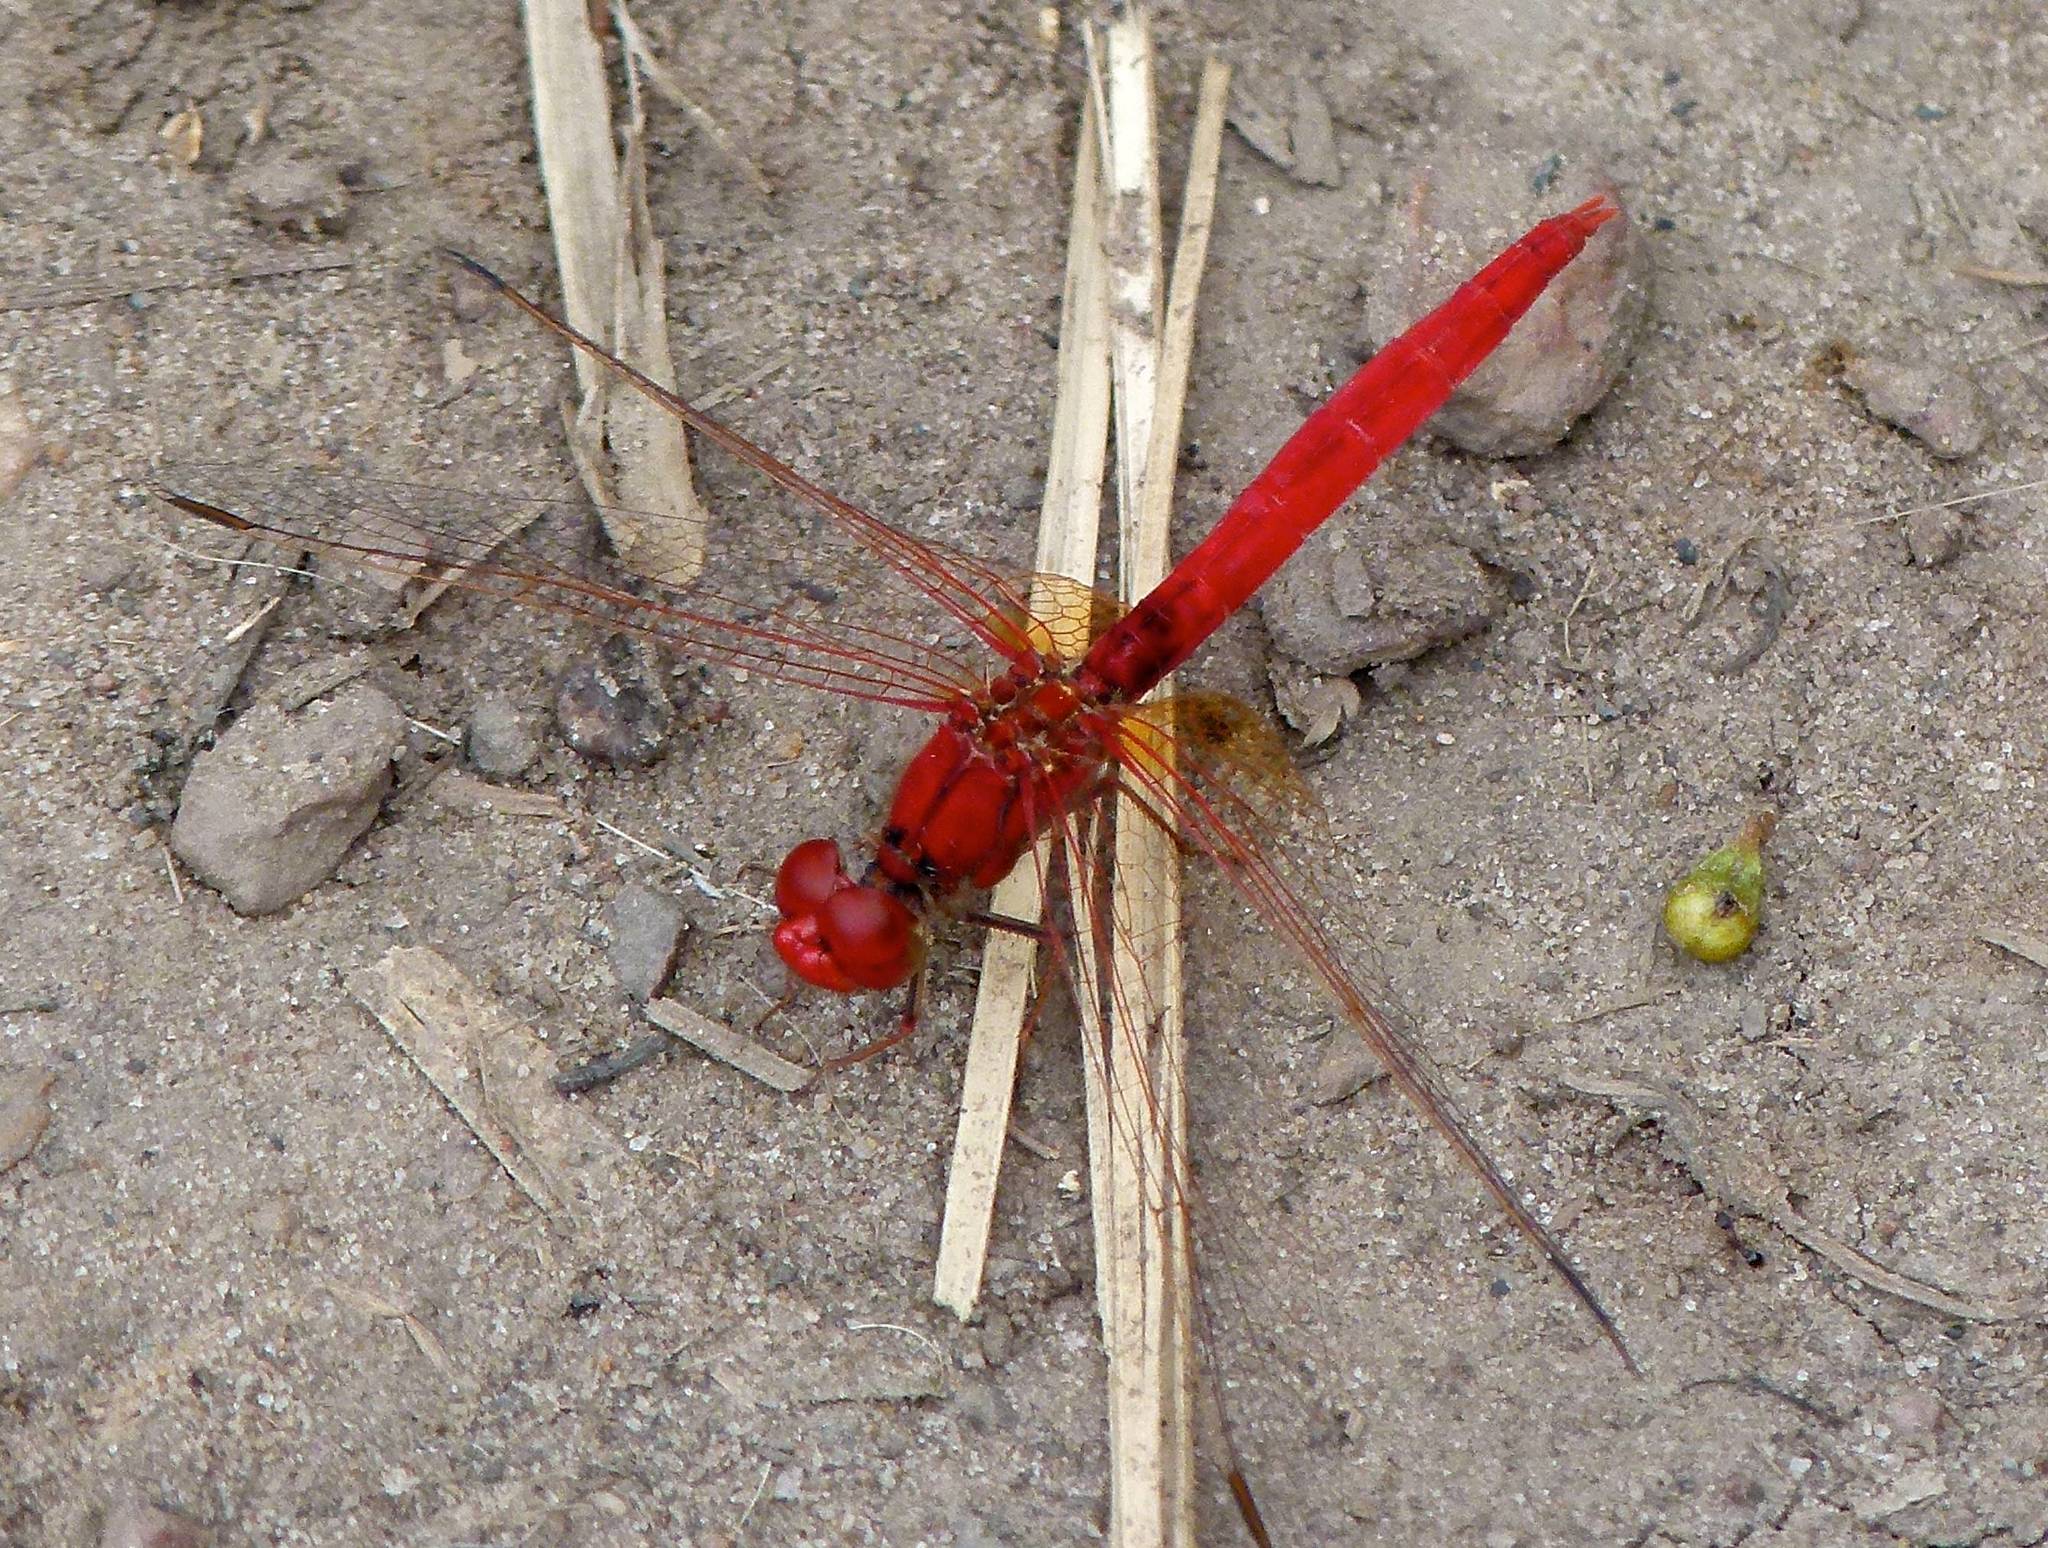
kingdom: Animalia
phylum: Arthropoda
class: Insecta
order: Odonata
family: Libellulidae
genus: Diplacodes
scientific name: Diplacodes haematodes
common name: Scarlet percher
